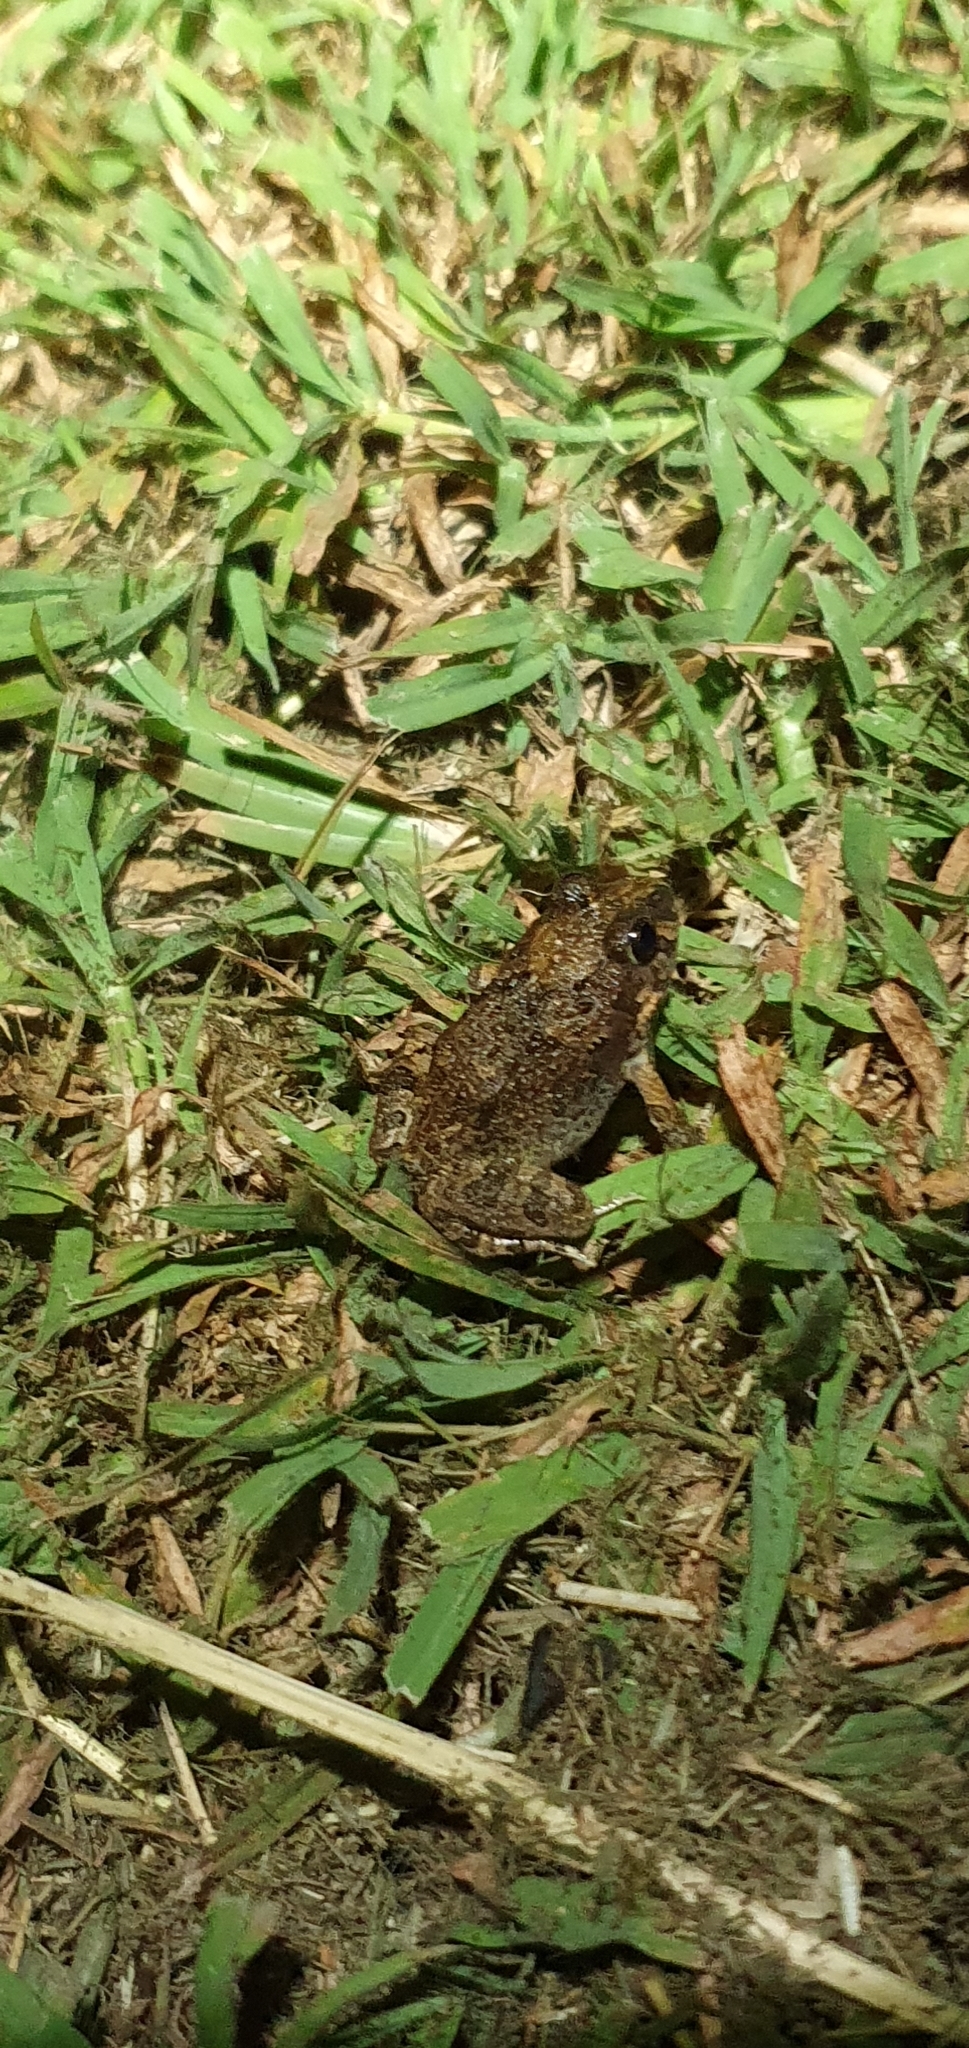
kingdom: Animalia
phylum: Chordata
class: Amphibia
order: Anura
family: Limnodynastidae
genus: Platyplectrum
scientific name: Platyplectrum ornatum
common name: Ornate burrowing frog
